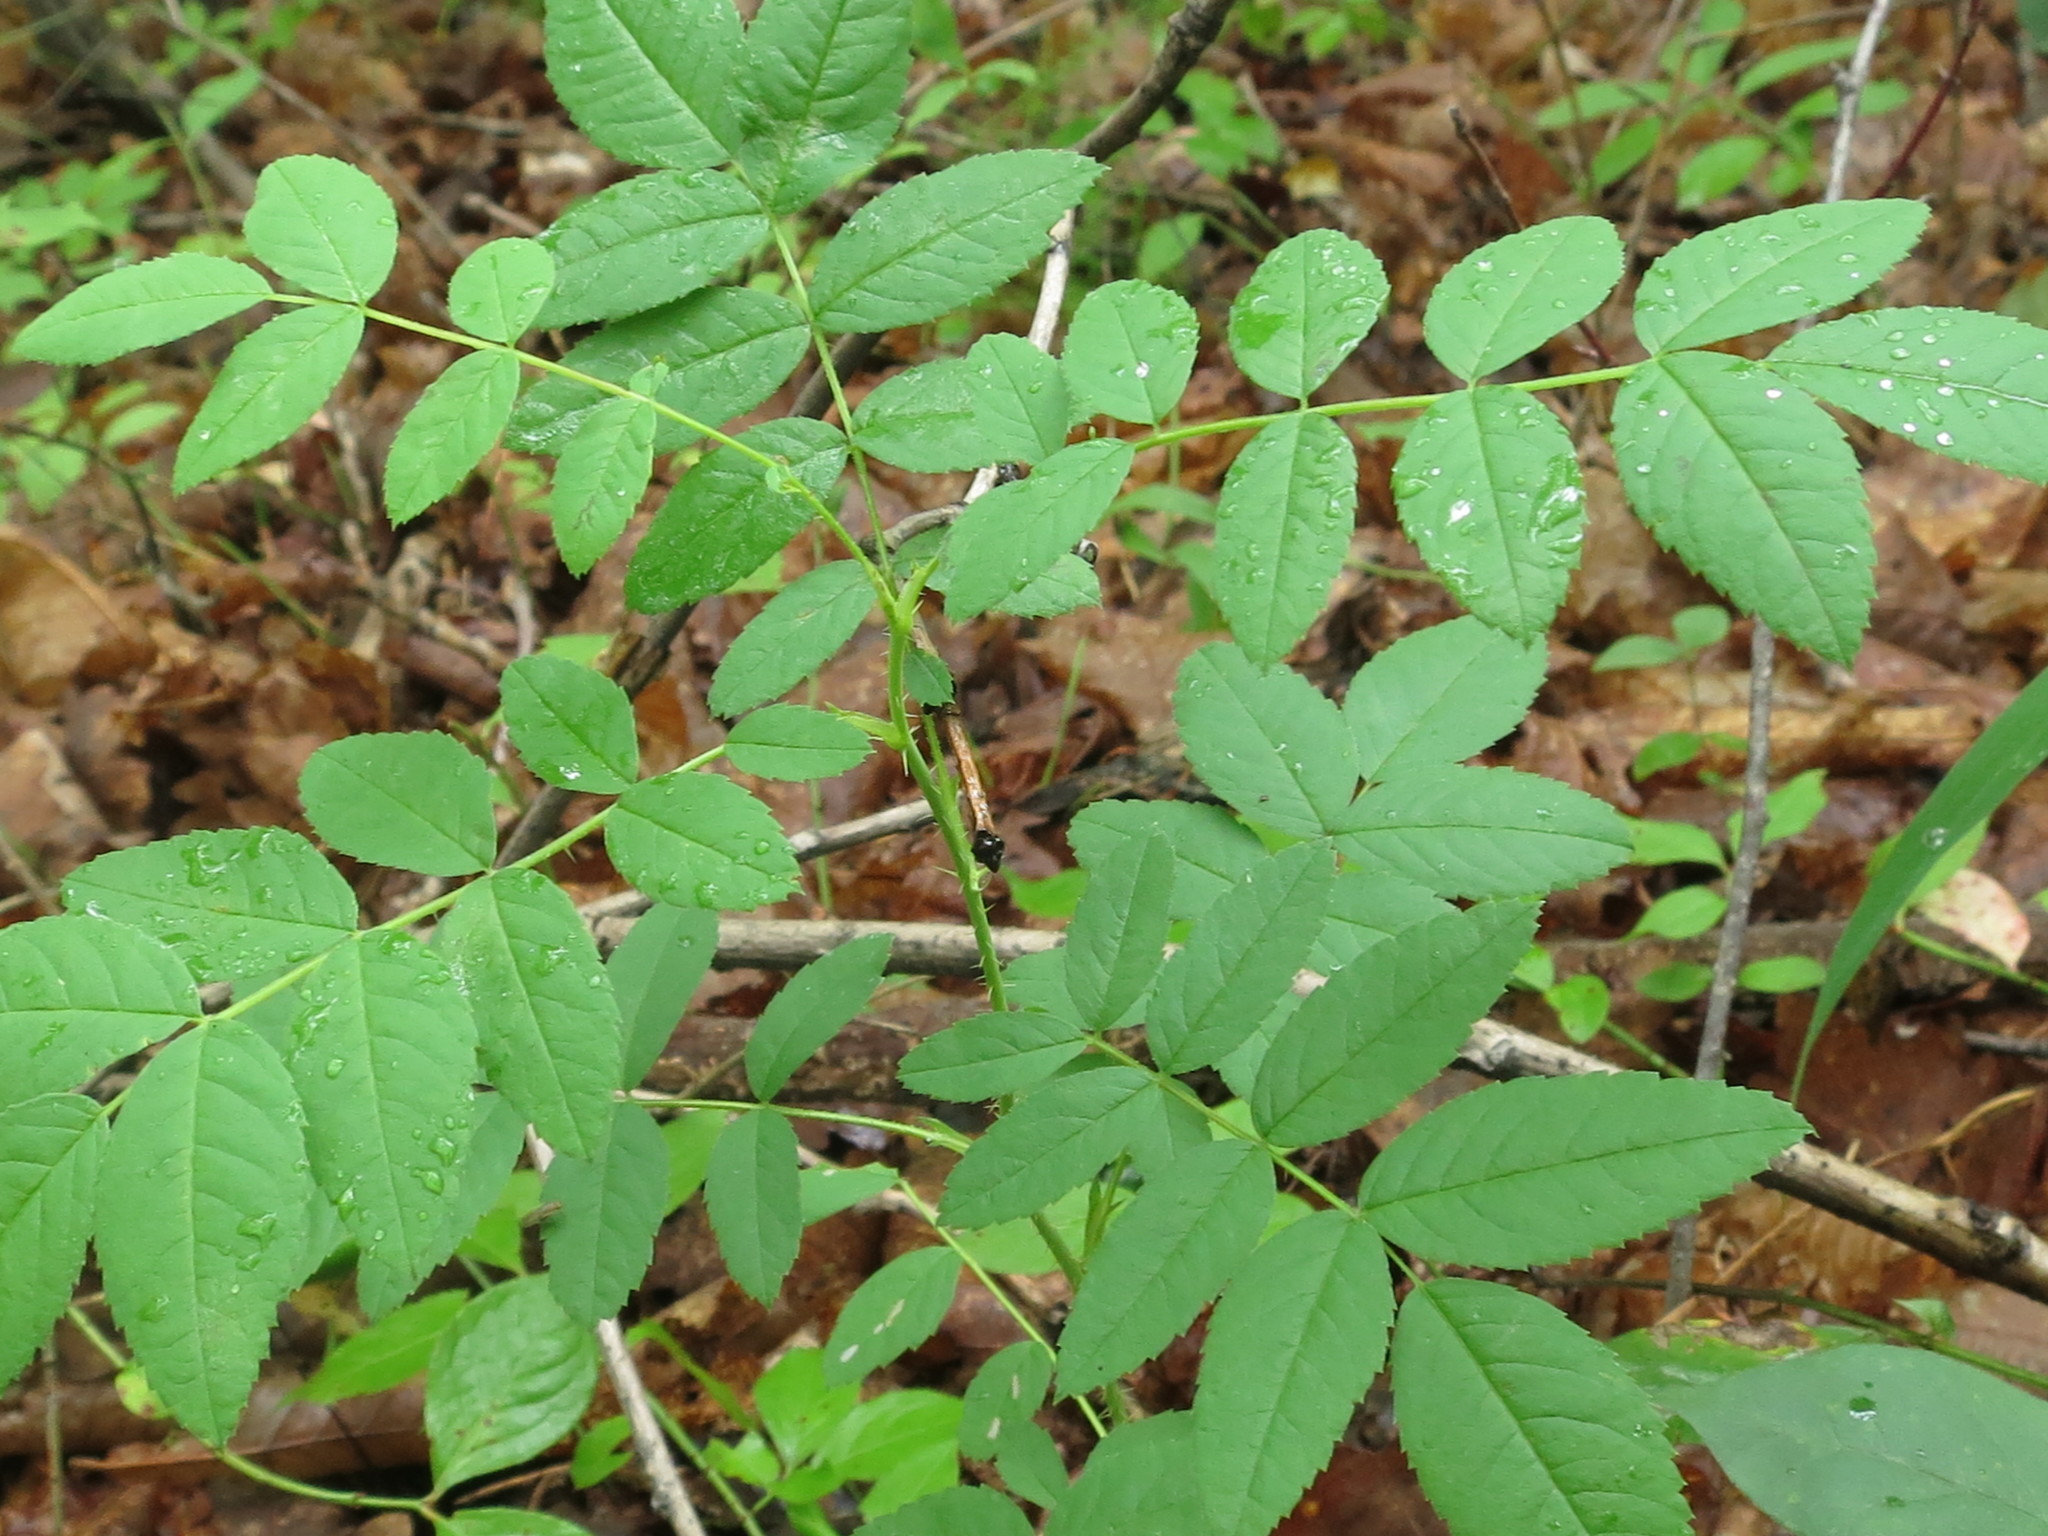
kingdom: Plantae
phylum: Tracheophyta
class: Magnoliopsida
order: Rosales
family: Rosaceae
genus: Rosa
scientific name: Rosa davurica
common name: Amur rose
